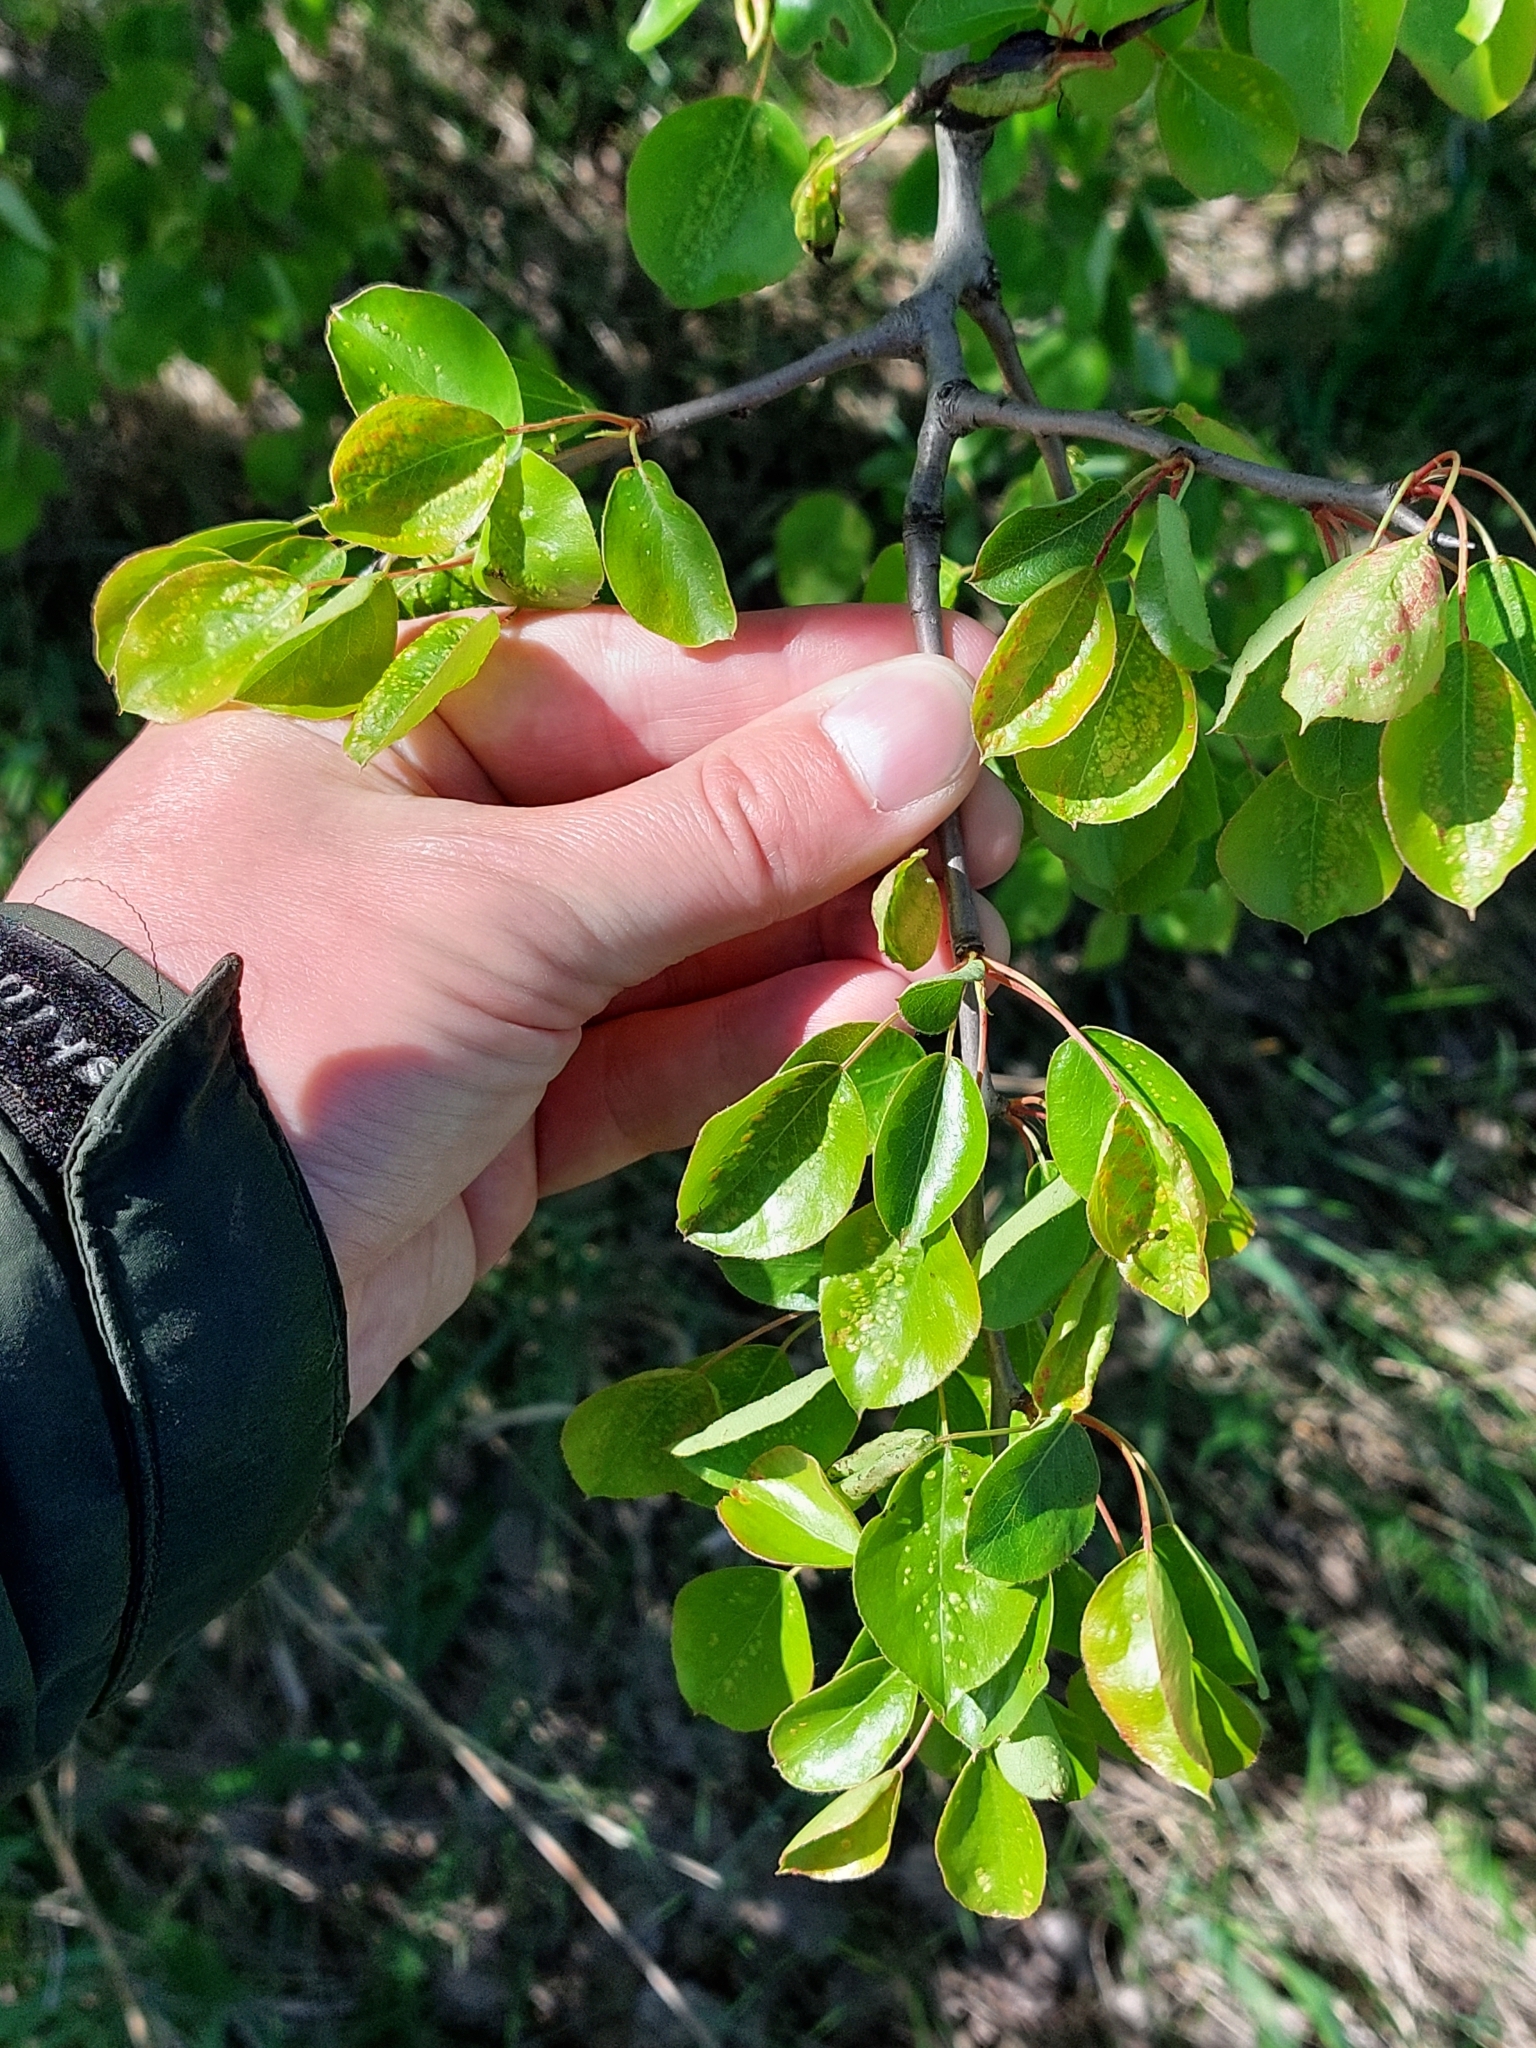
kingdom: Plantae
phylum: Tracheophyta
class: Magnoliopsida
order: Rosales
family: Rosaceae
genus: Pyrus
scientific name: Pyrus communis
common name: Pear
